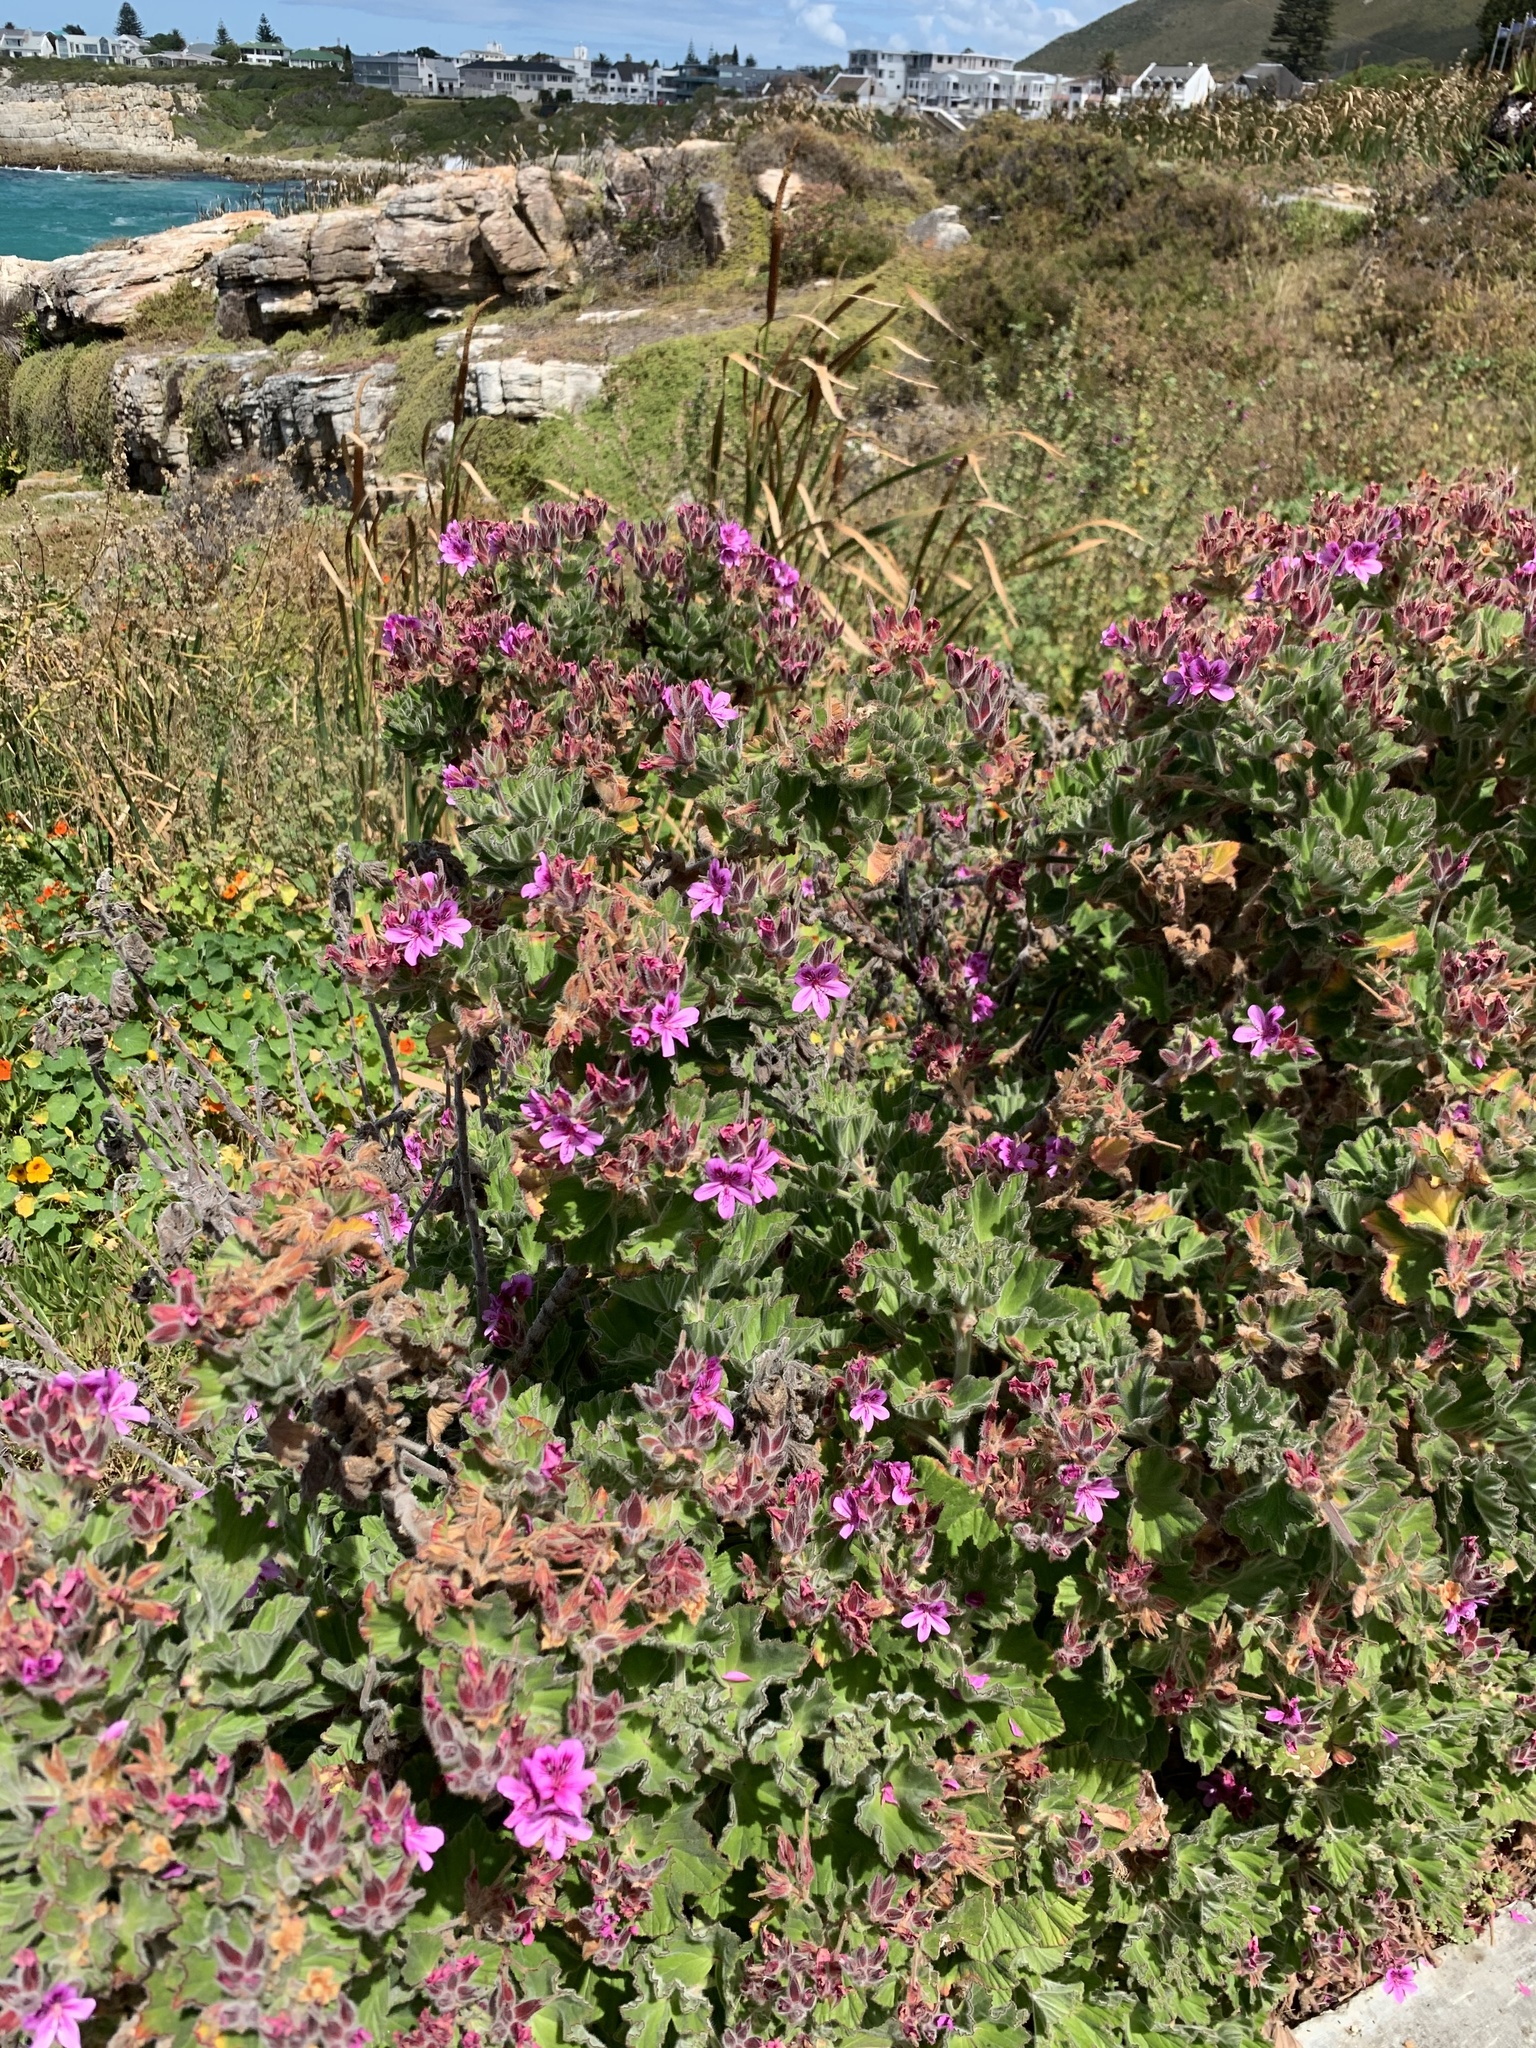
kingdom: Plantae
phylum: Tracheophyta
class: Magnoliopsida
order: Geraniales
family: Geraniaceae
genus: Pelargonium
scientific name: Pelargonium cucullatum
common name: Tree pelargonium
